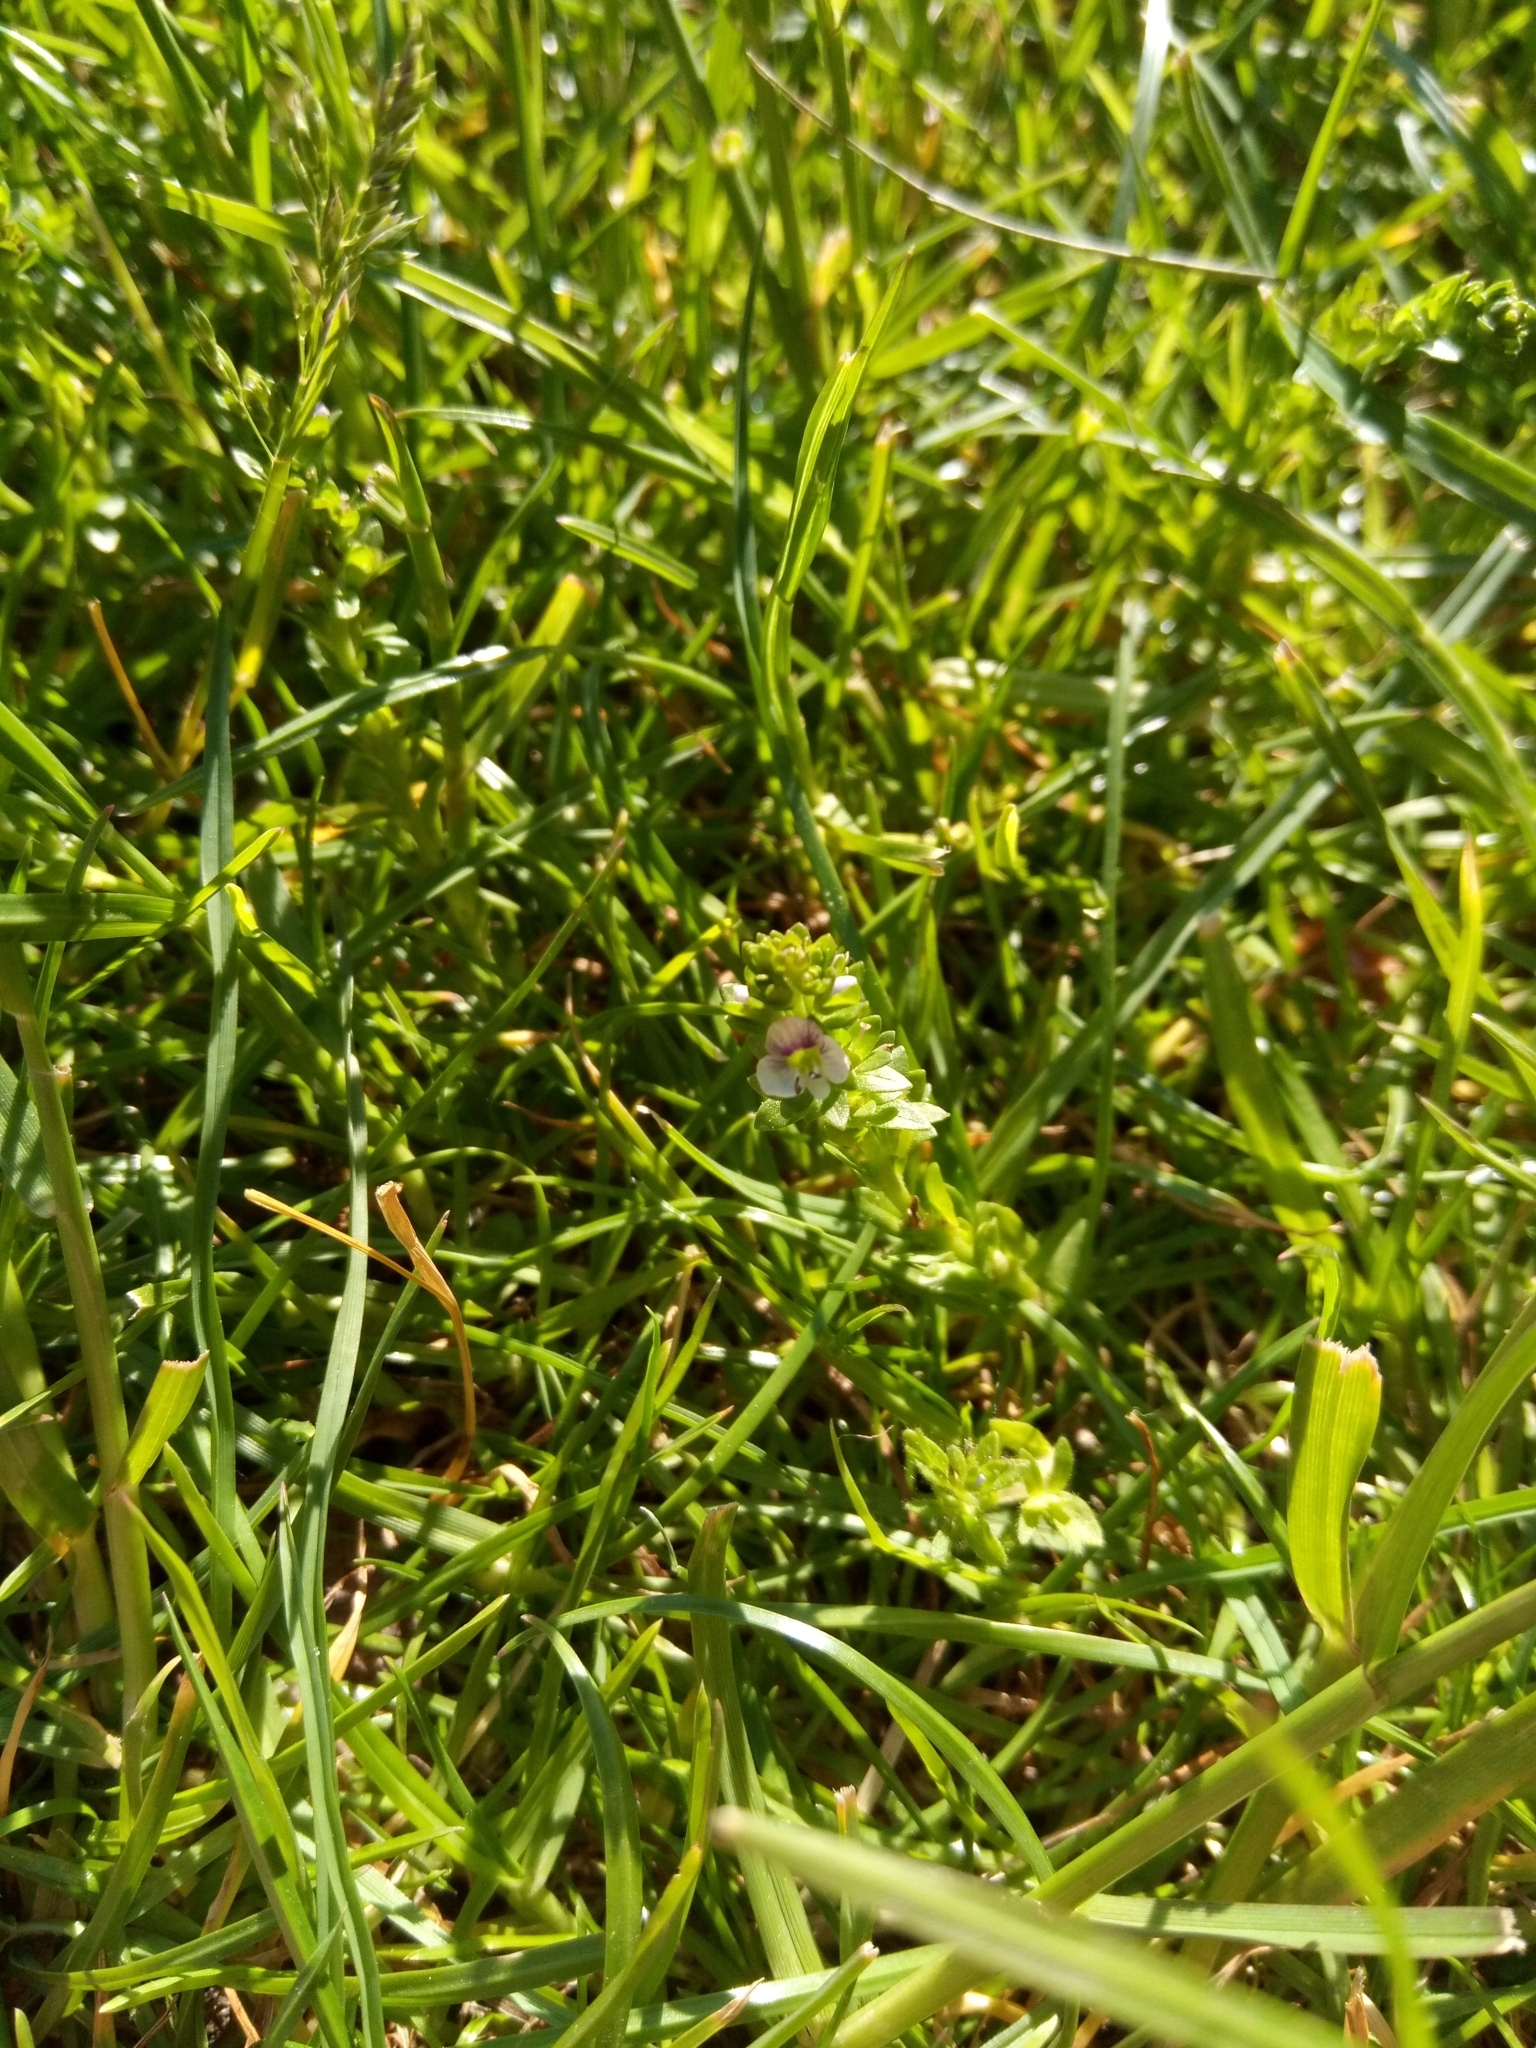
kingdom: Plantae
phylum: Tracheophyta
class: Magnoliopsida
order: Lamiales
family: Plantaginaceae
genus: Veronica
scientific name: Veronica serpyllifolia
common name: Thyme-leaved speedwell
